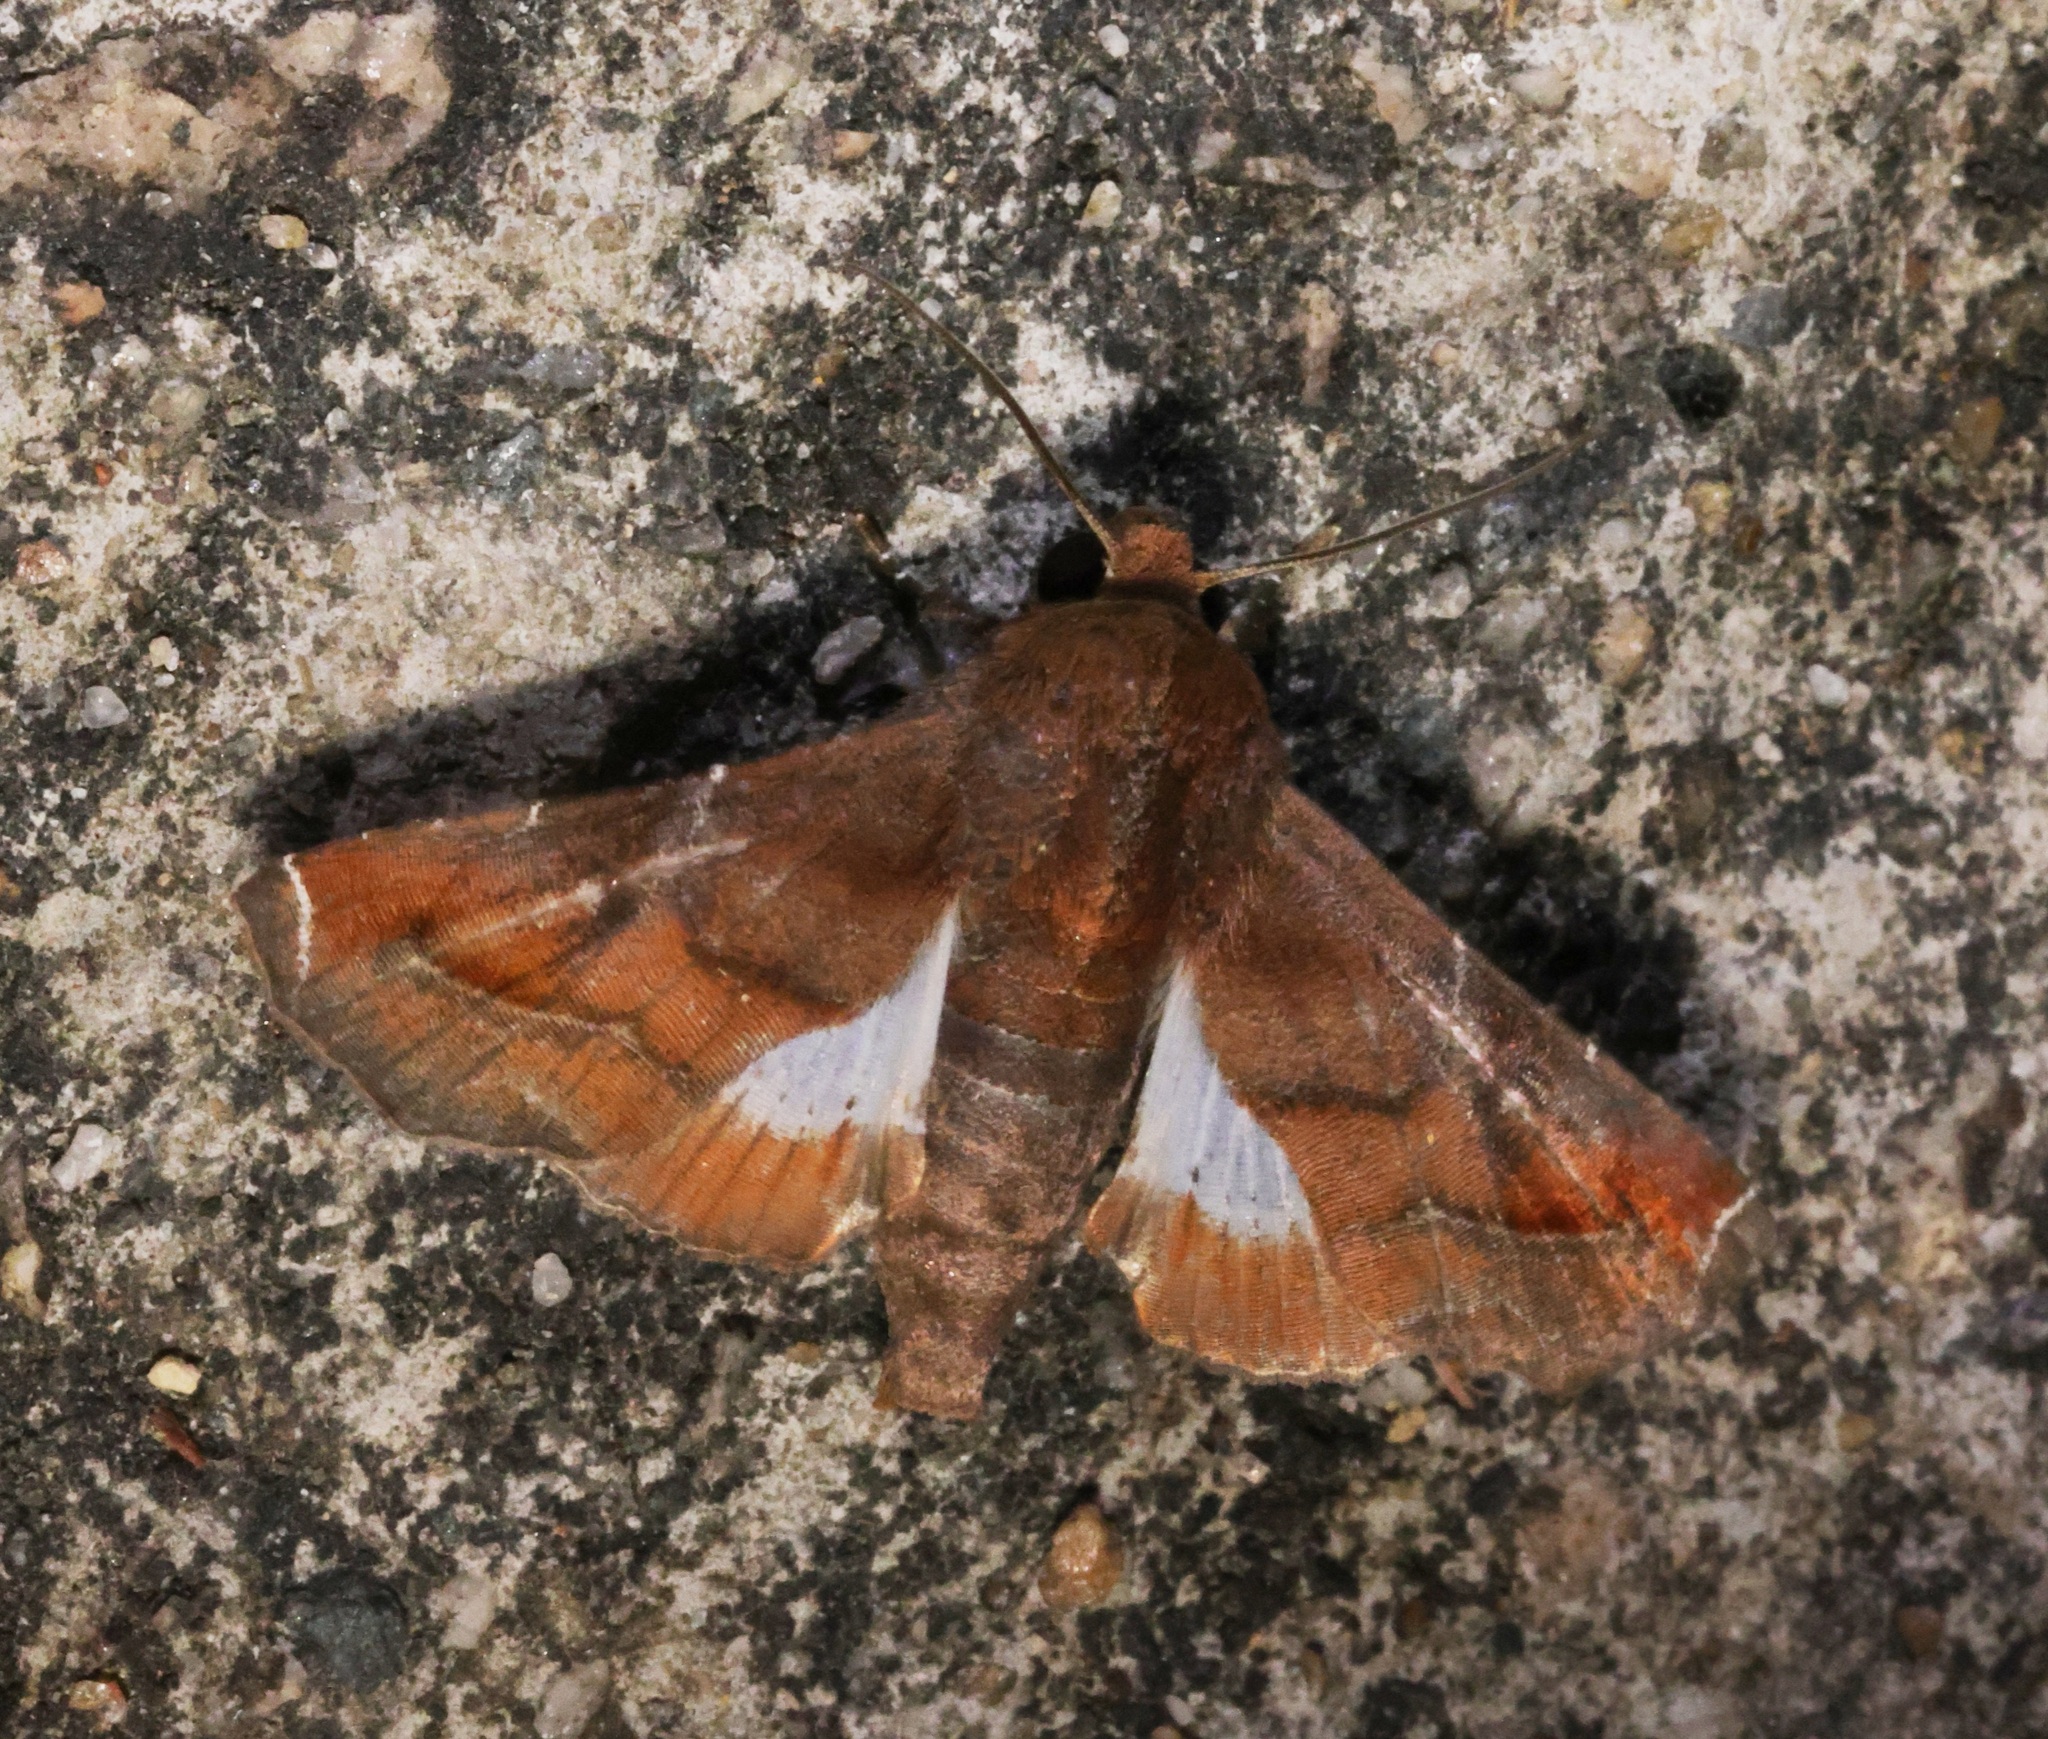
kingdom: Animalia
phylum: Arthropoda
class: Insecta
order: Lepidoptera
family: Euteliidae
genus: Penicillaria
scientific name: Penicillaria jocosatrix
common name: Mango shoot borer
